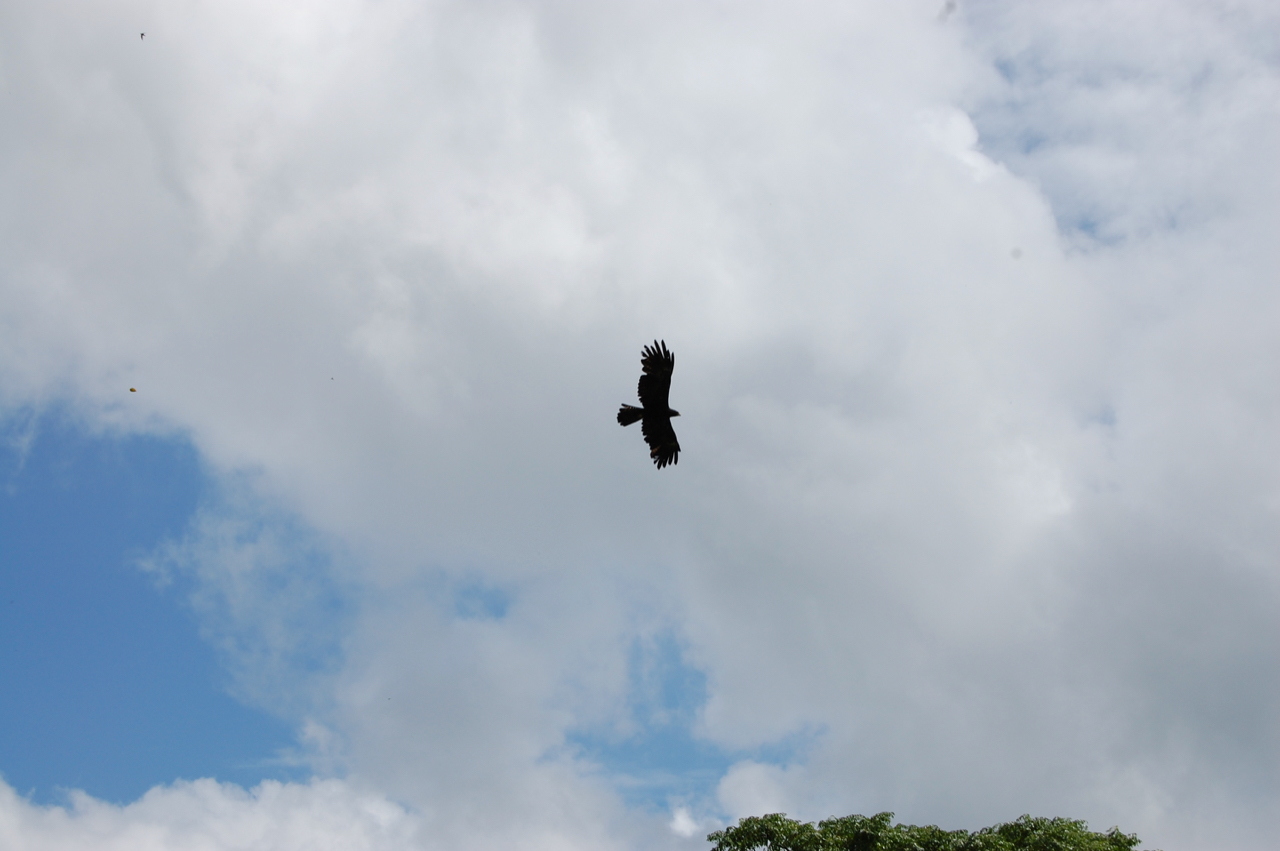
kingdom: Animalia
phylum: Chordata
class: Aves
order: Accipitriformes
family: Accipitridae
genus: Ictinaetus
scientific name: Ictinaetus malayensis
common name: Black eagle
